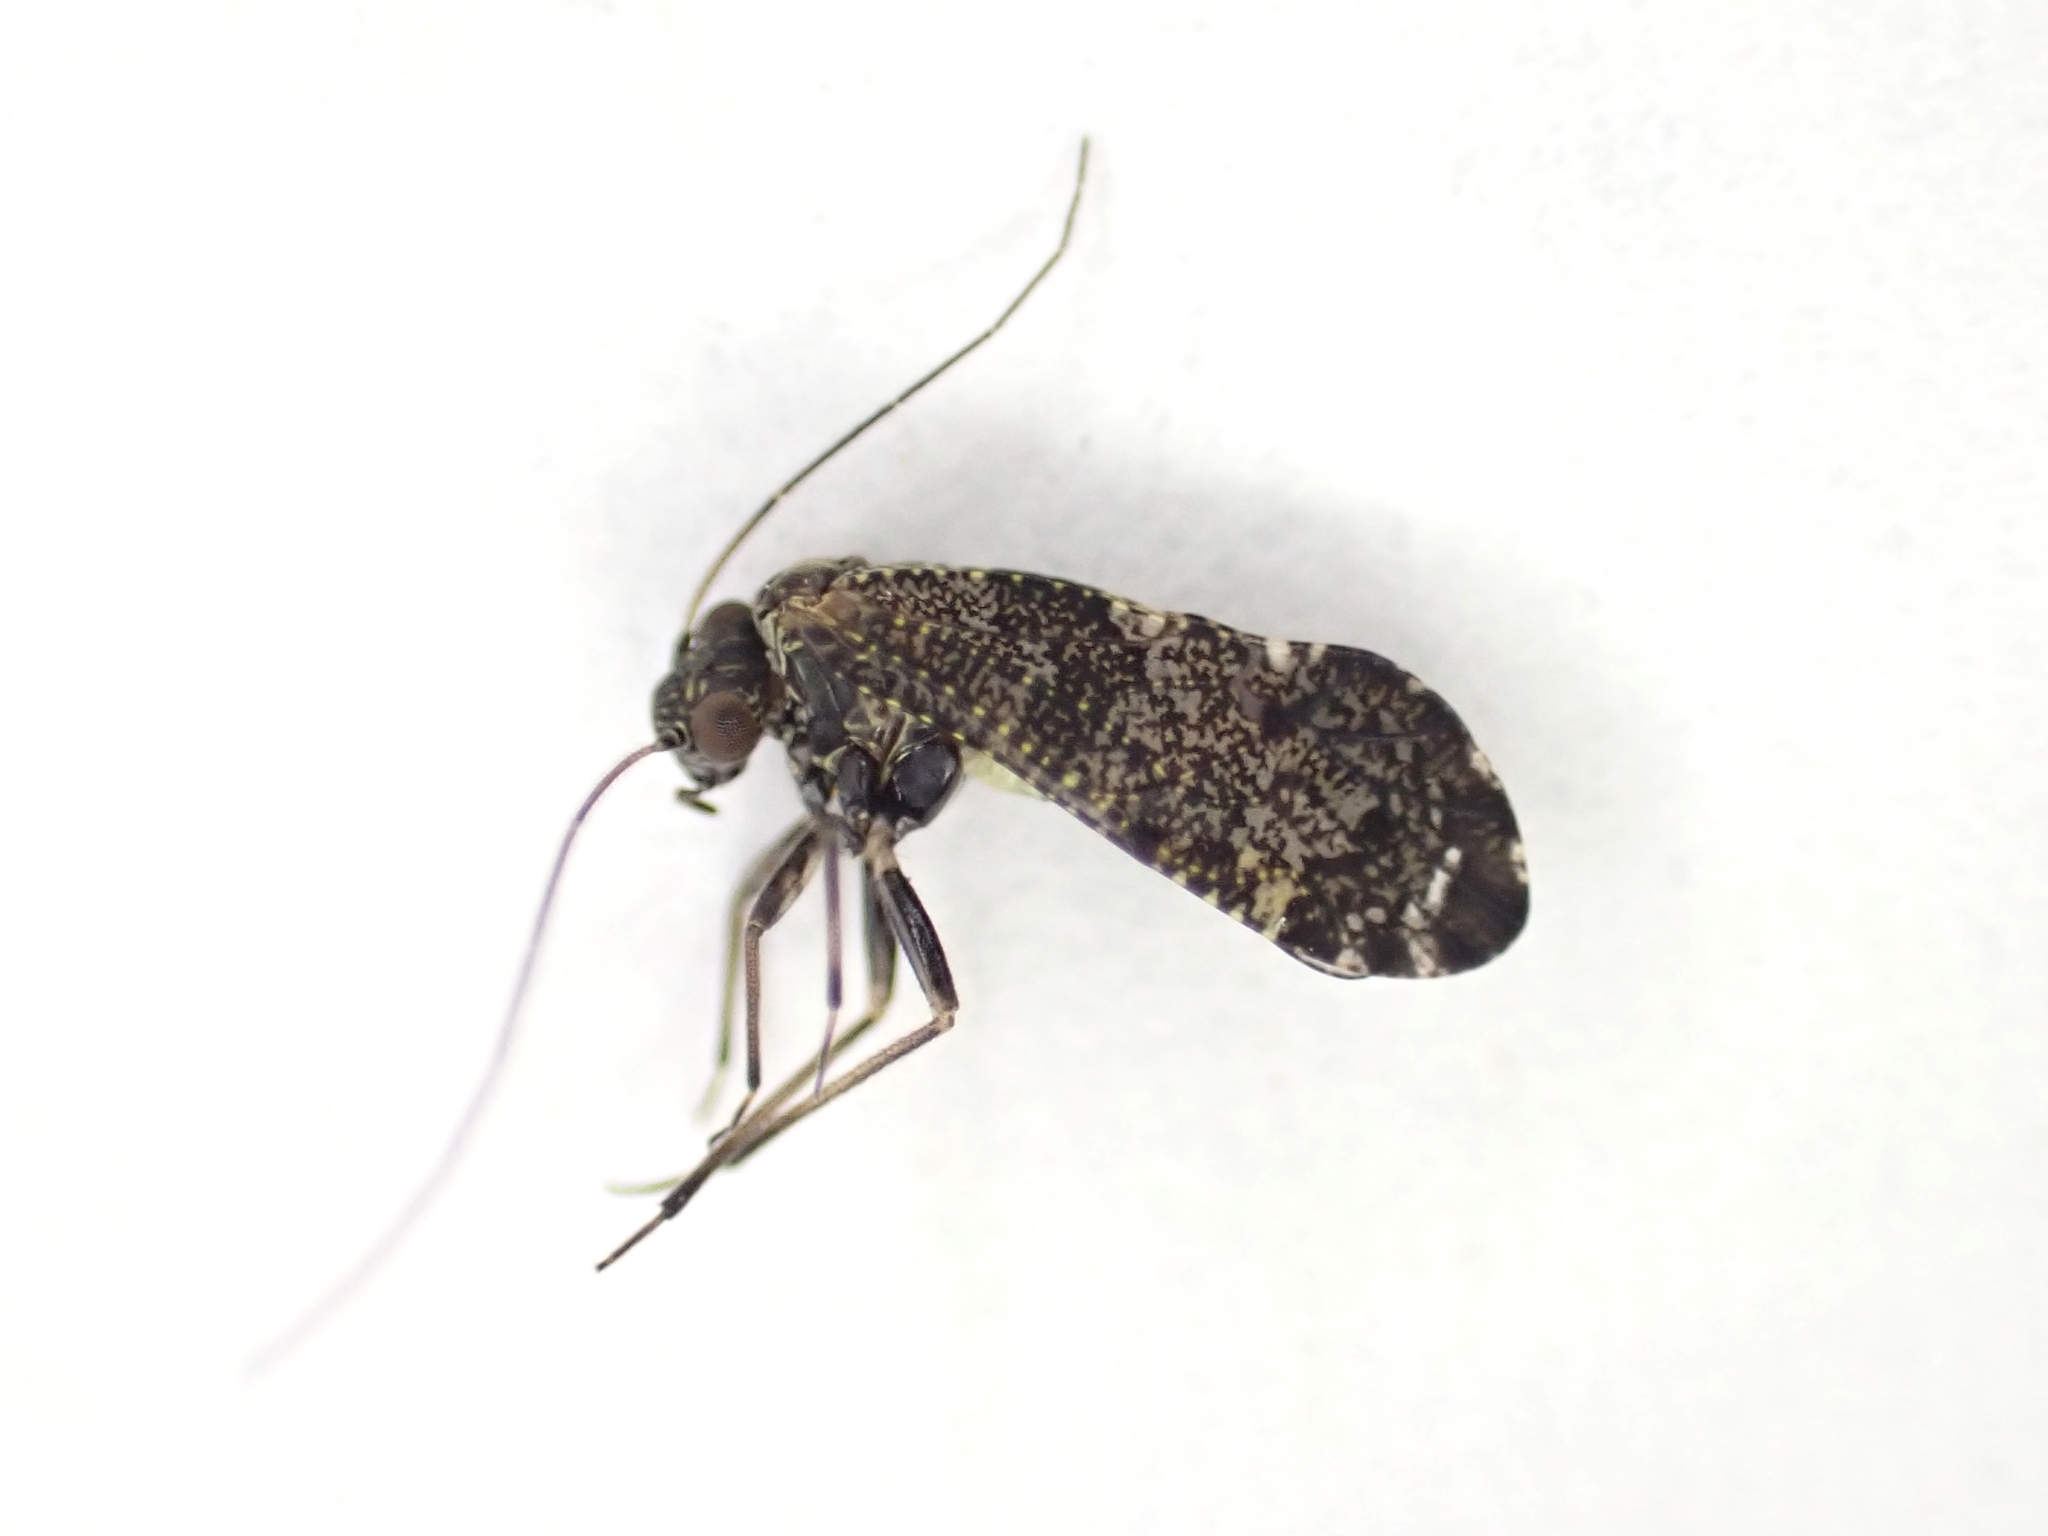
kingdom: Animalia
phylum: Arthropoda
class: Insecta
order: Psocodea
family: Myopsocidae
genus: Nimbopsocus
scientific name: Nimbopsocus australis
